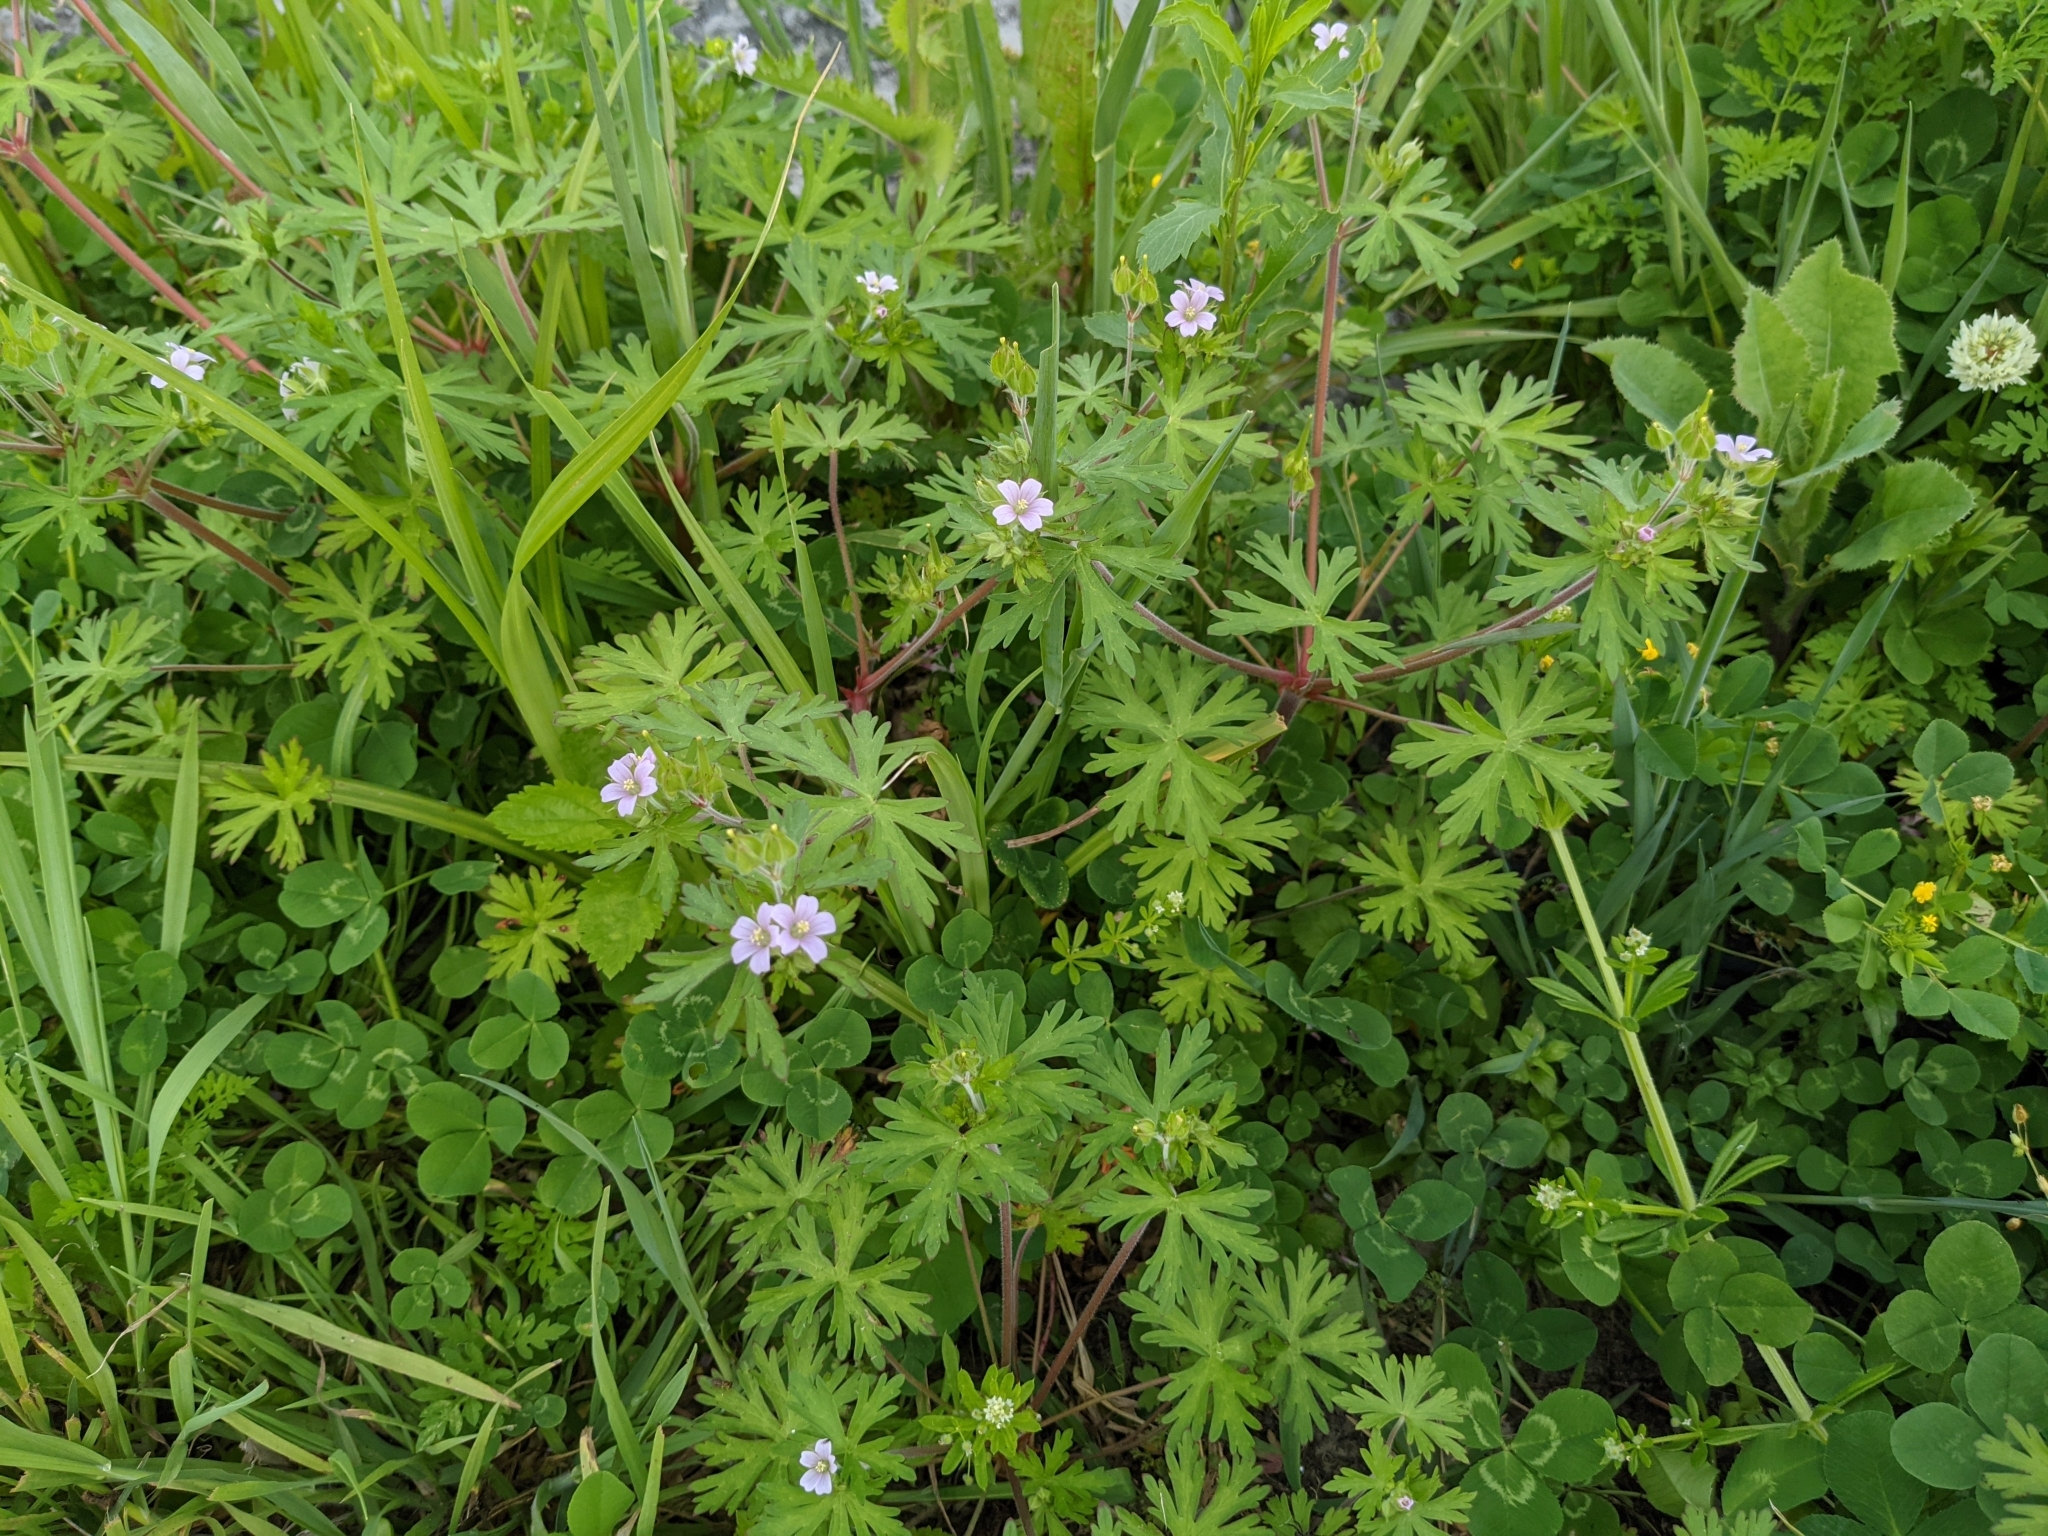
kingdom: Plantae
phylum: Tracheophyta
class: Magnoliopsida
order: Geraniales
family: Geraniaceae
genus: Geranium
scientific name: Geranium carolinianum
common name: Carolina crane's-bill
